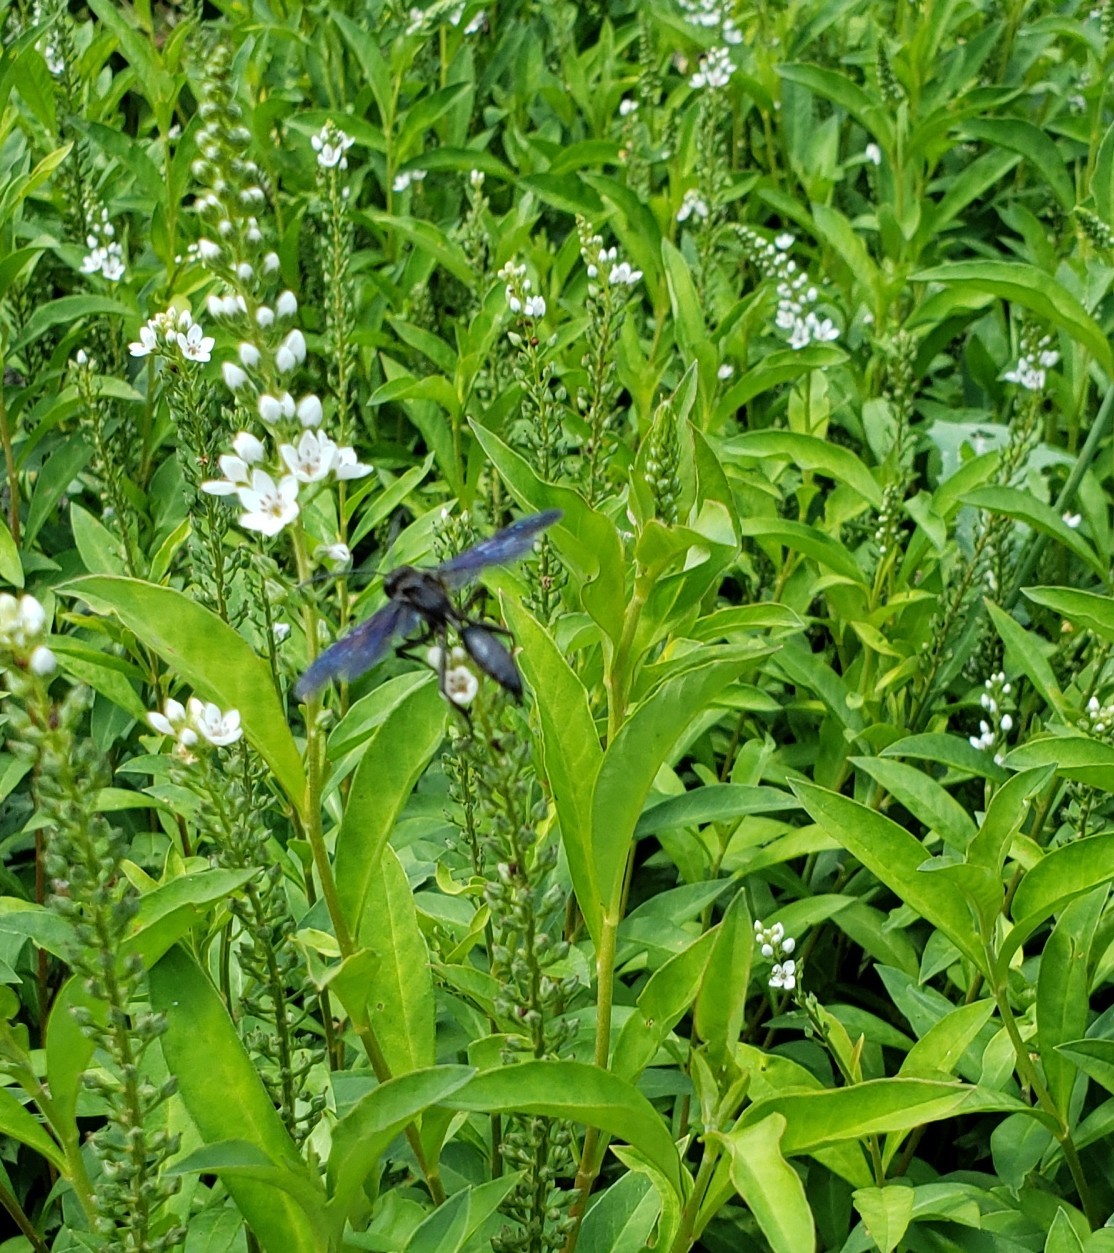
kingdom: Animalia
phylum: Arthropoda
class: Insecta
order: Hymenoptera
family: Sphecidae
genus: Sphex
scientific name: Sphex pensylvanicus
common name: Great black digger wasp
